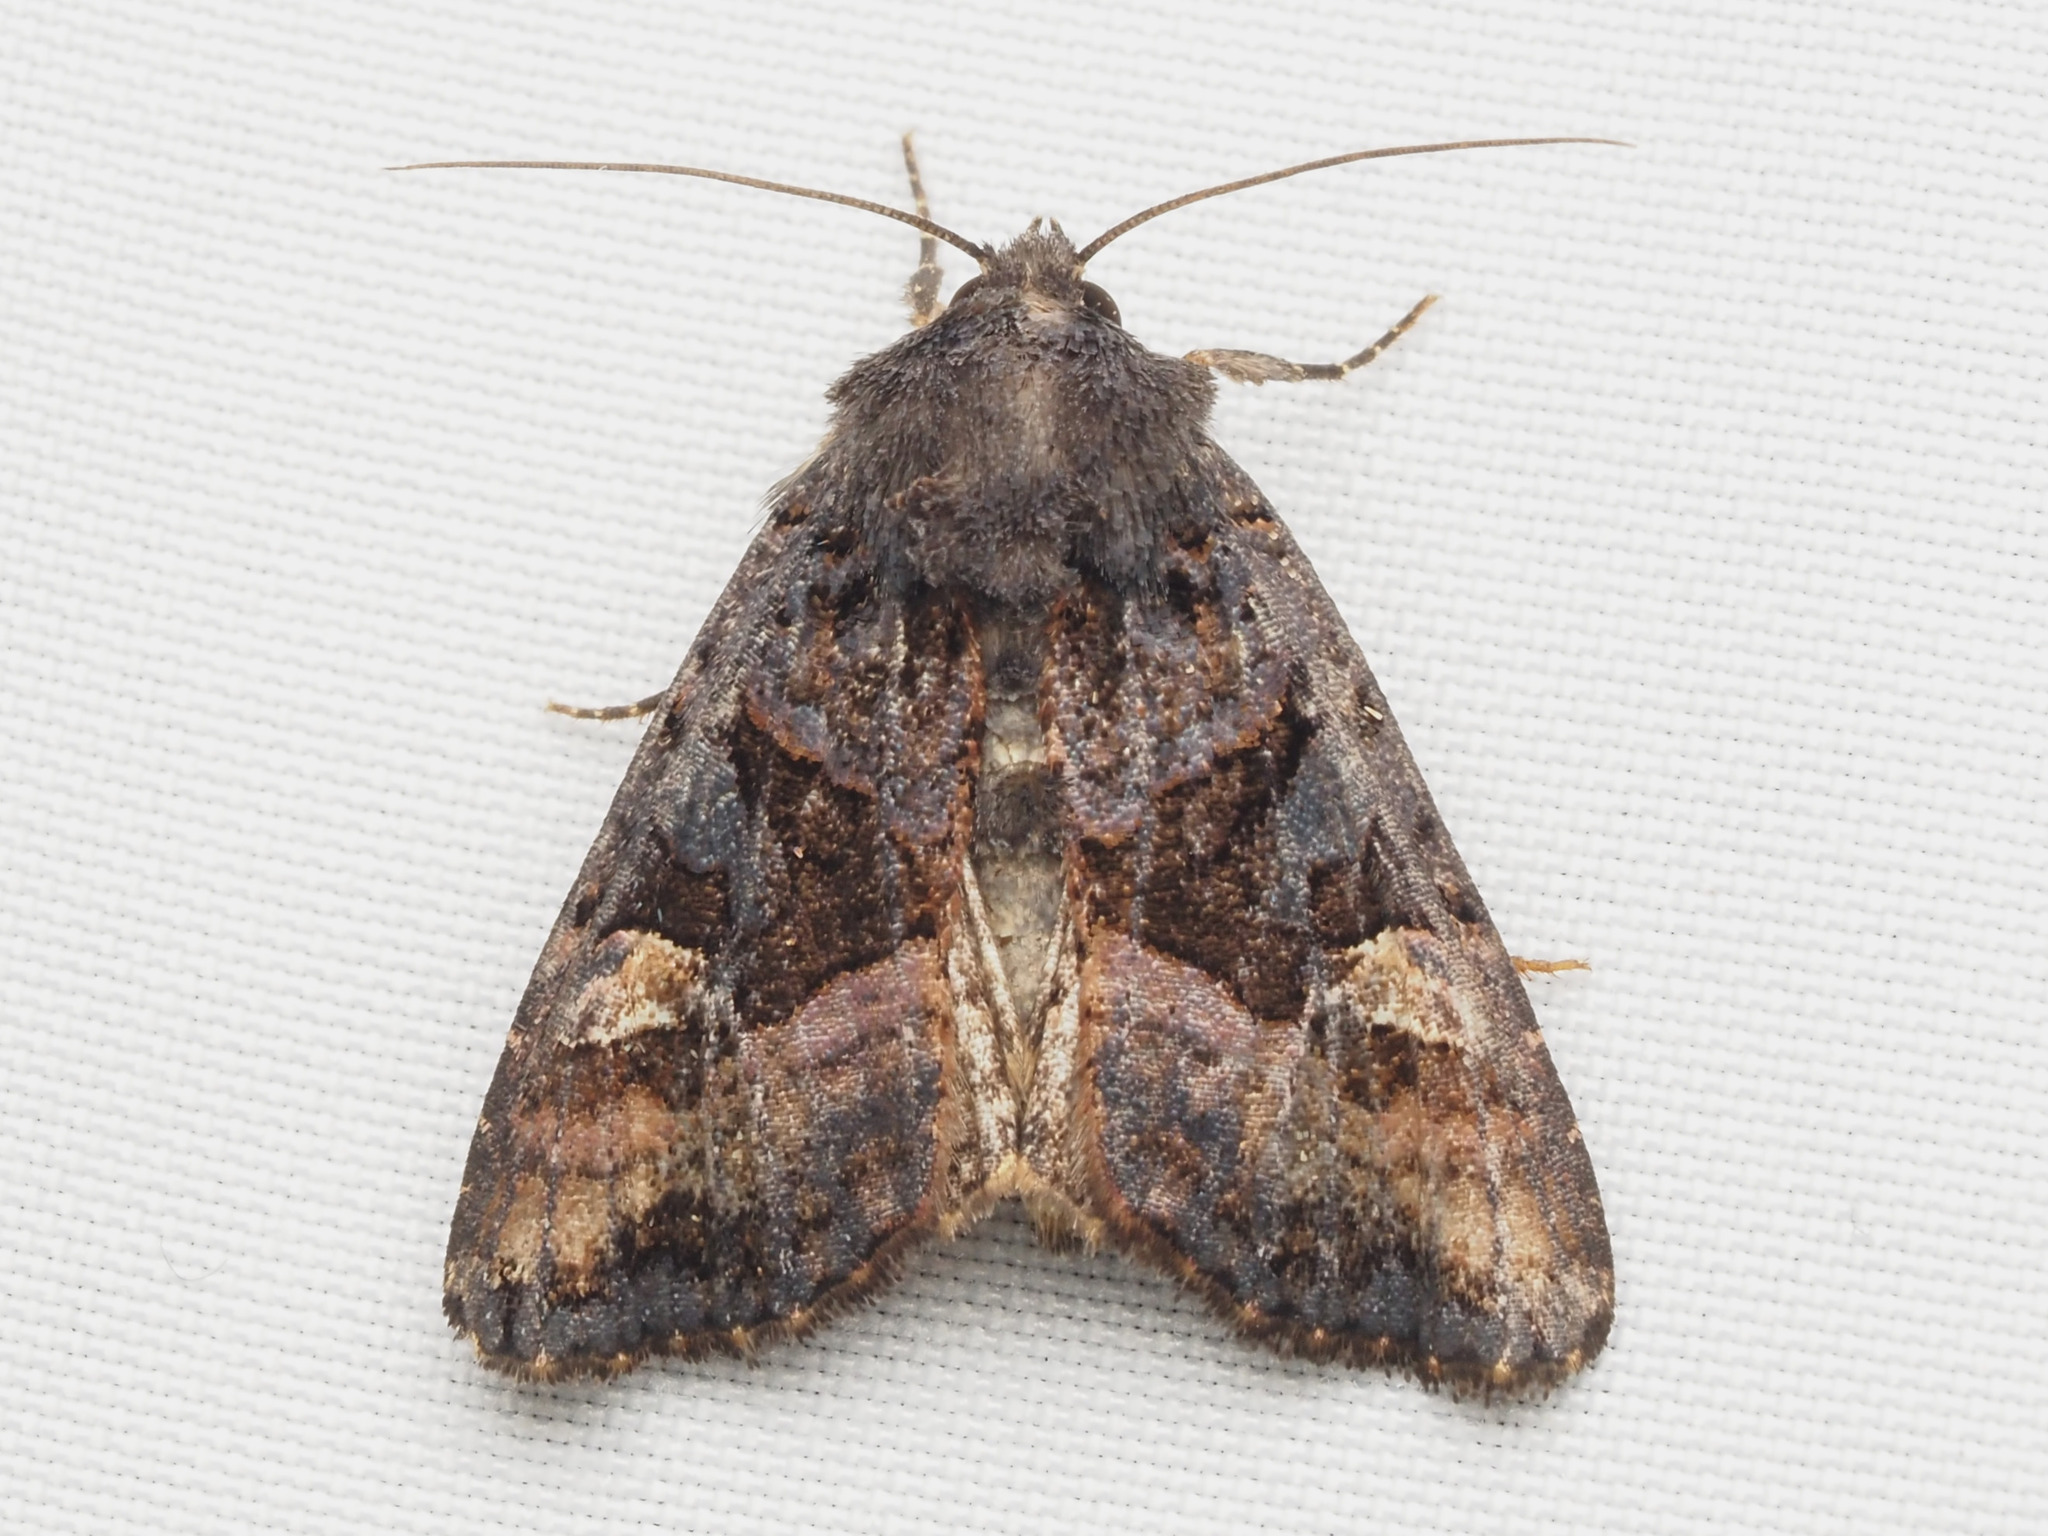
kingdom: Animalia
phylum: Arthropoda
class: Insecta
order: Lepidoptera
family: Noctuidae
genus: Euplexia
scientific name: Euplexia benesimilis
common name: American angle shades
